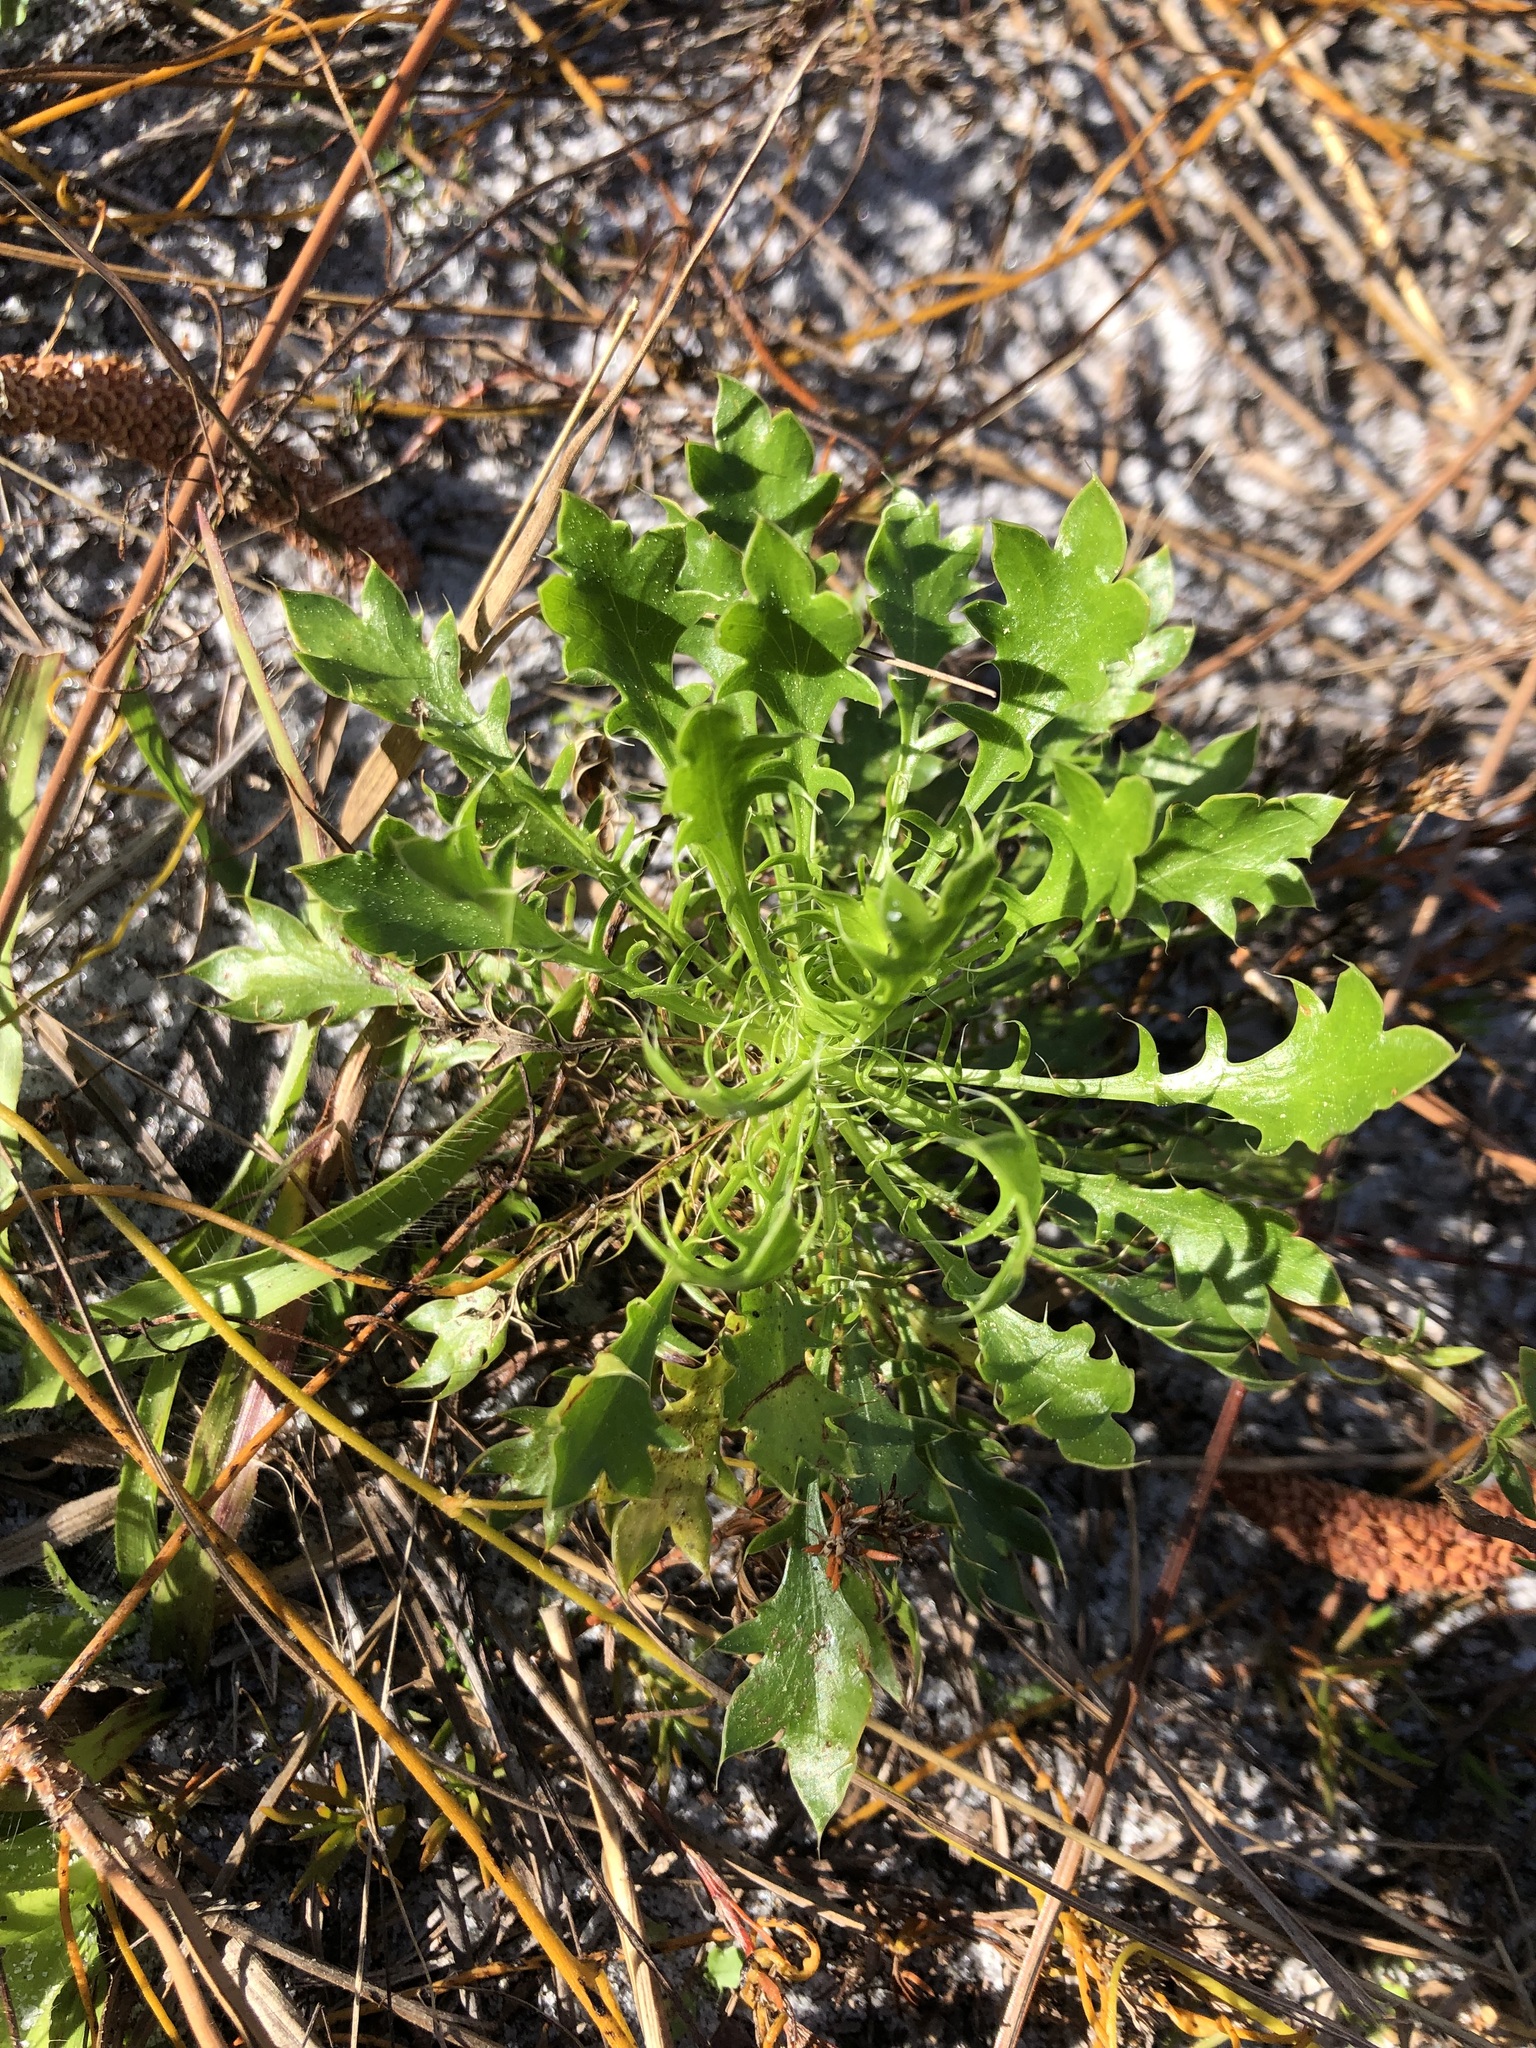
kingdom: Plantae
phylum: Tracheophyta
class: Magnoliopsida
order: Apiales
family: Apiaceae
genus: Eryngium
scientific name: Eryngium aromaticum
